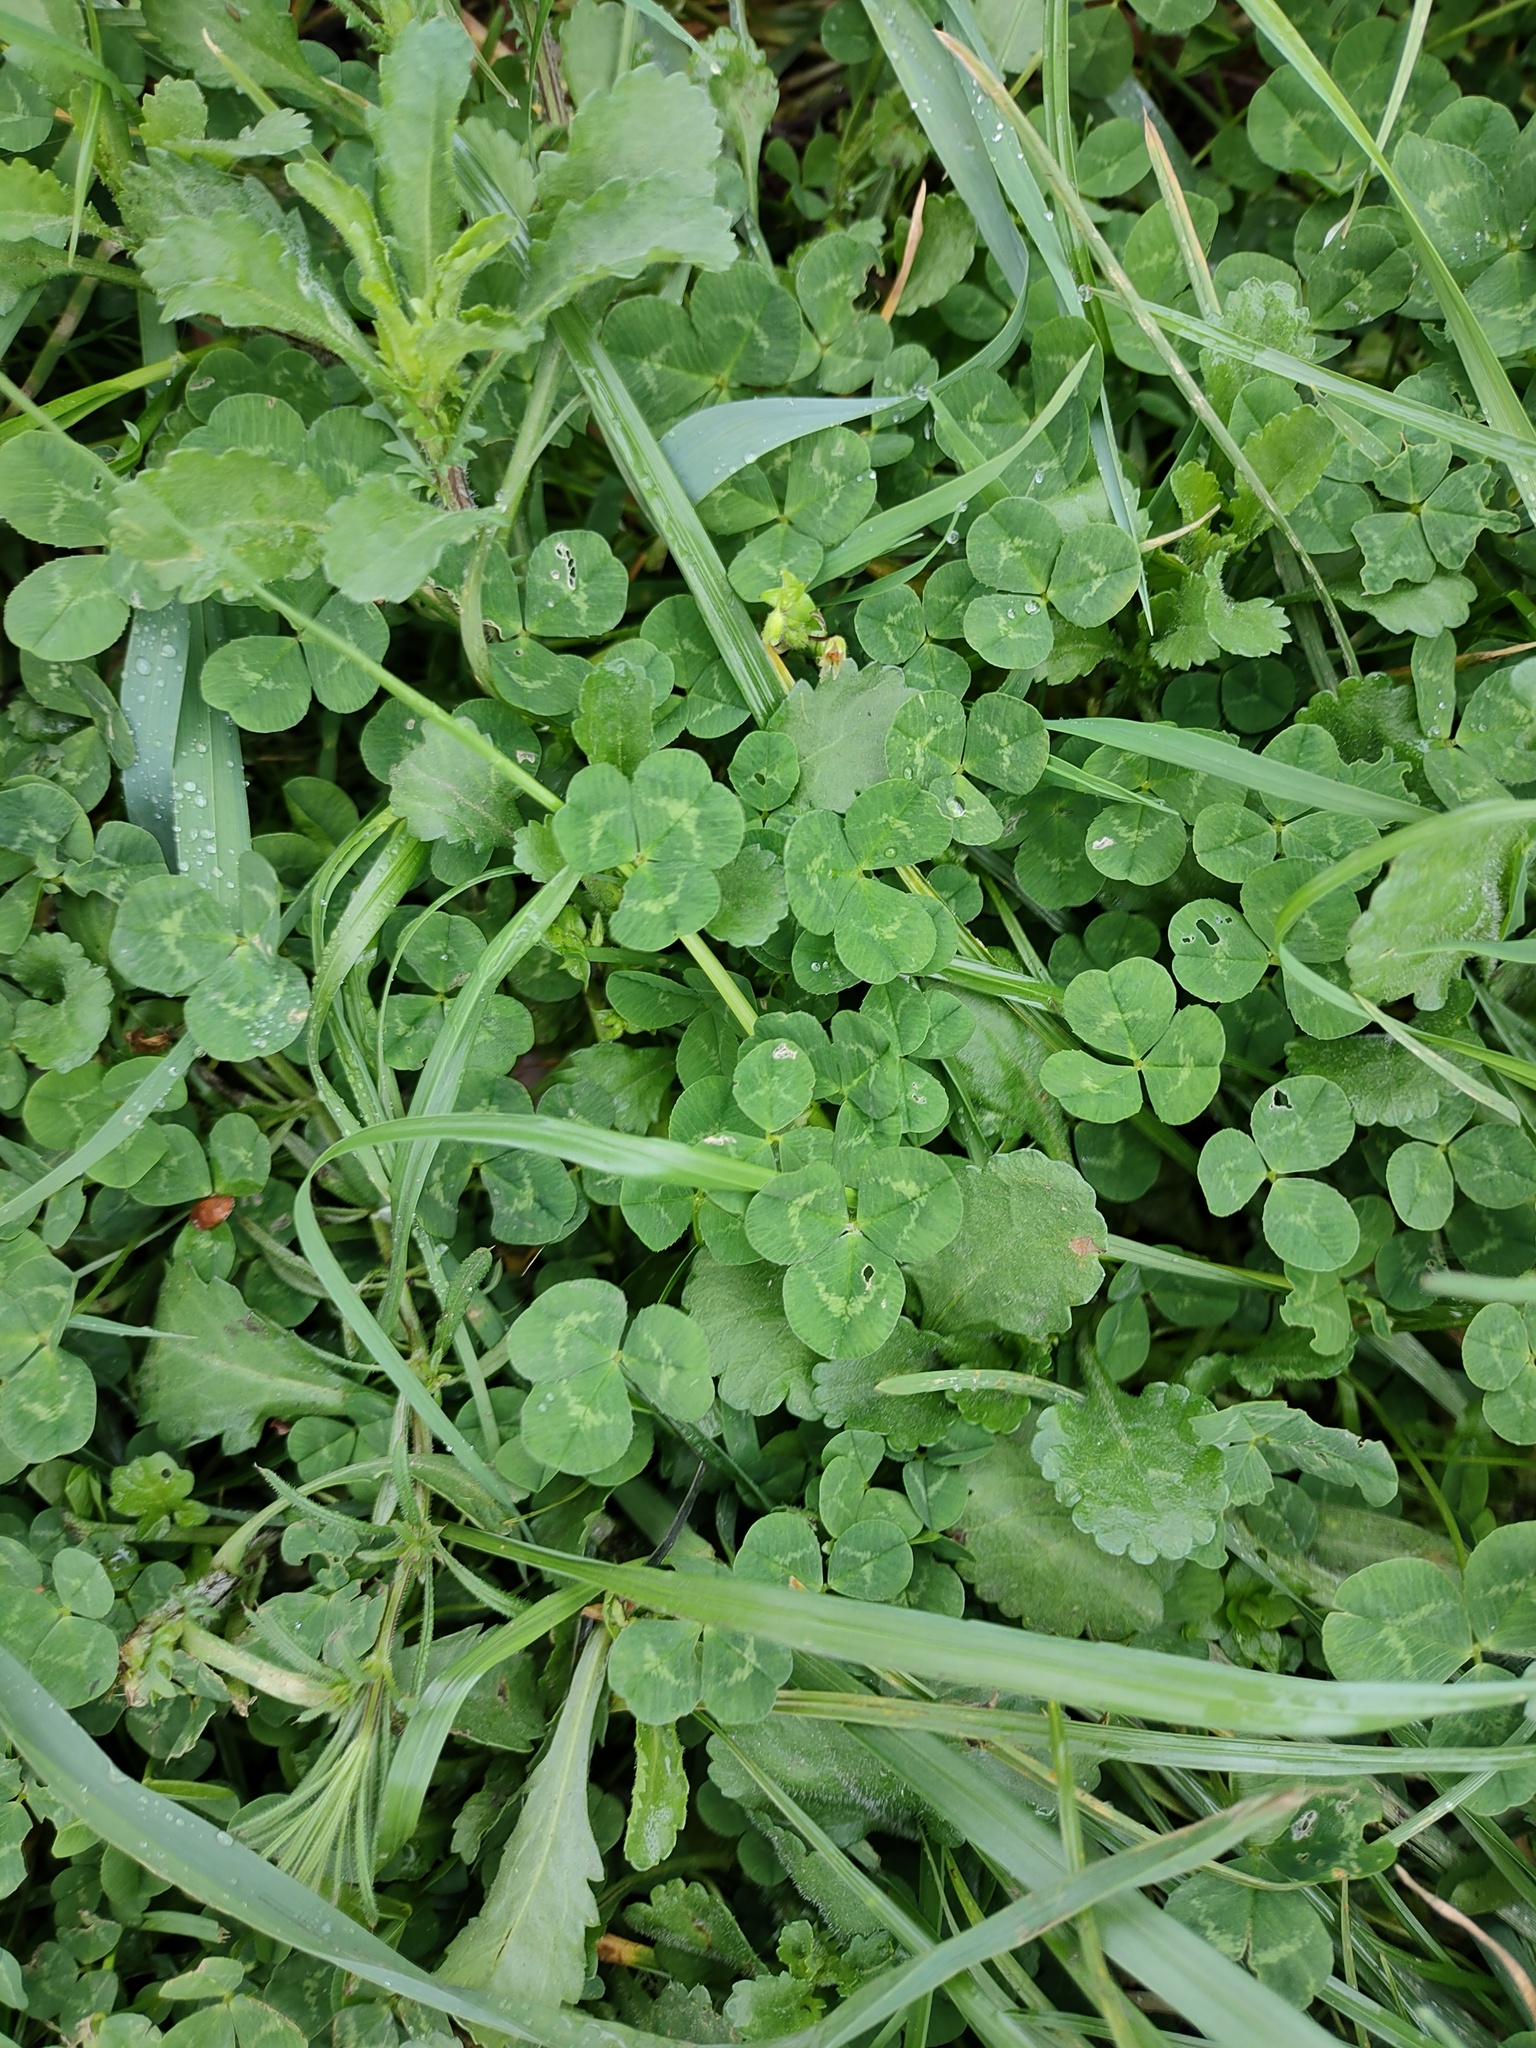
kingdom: Plantae
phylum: Tracheophyta
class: Magnoliopsida
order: Fabales
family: Fabaceae
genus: Trifolium
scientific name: Trifolium repens
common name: White clover
